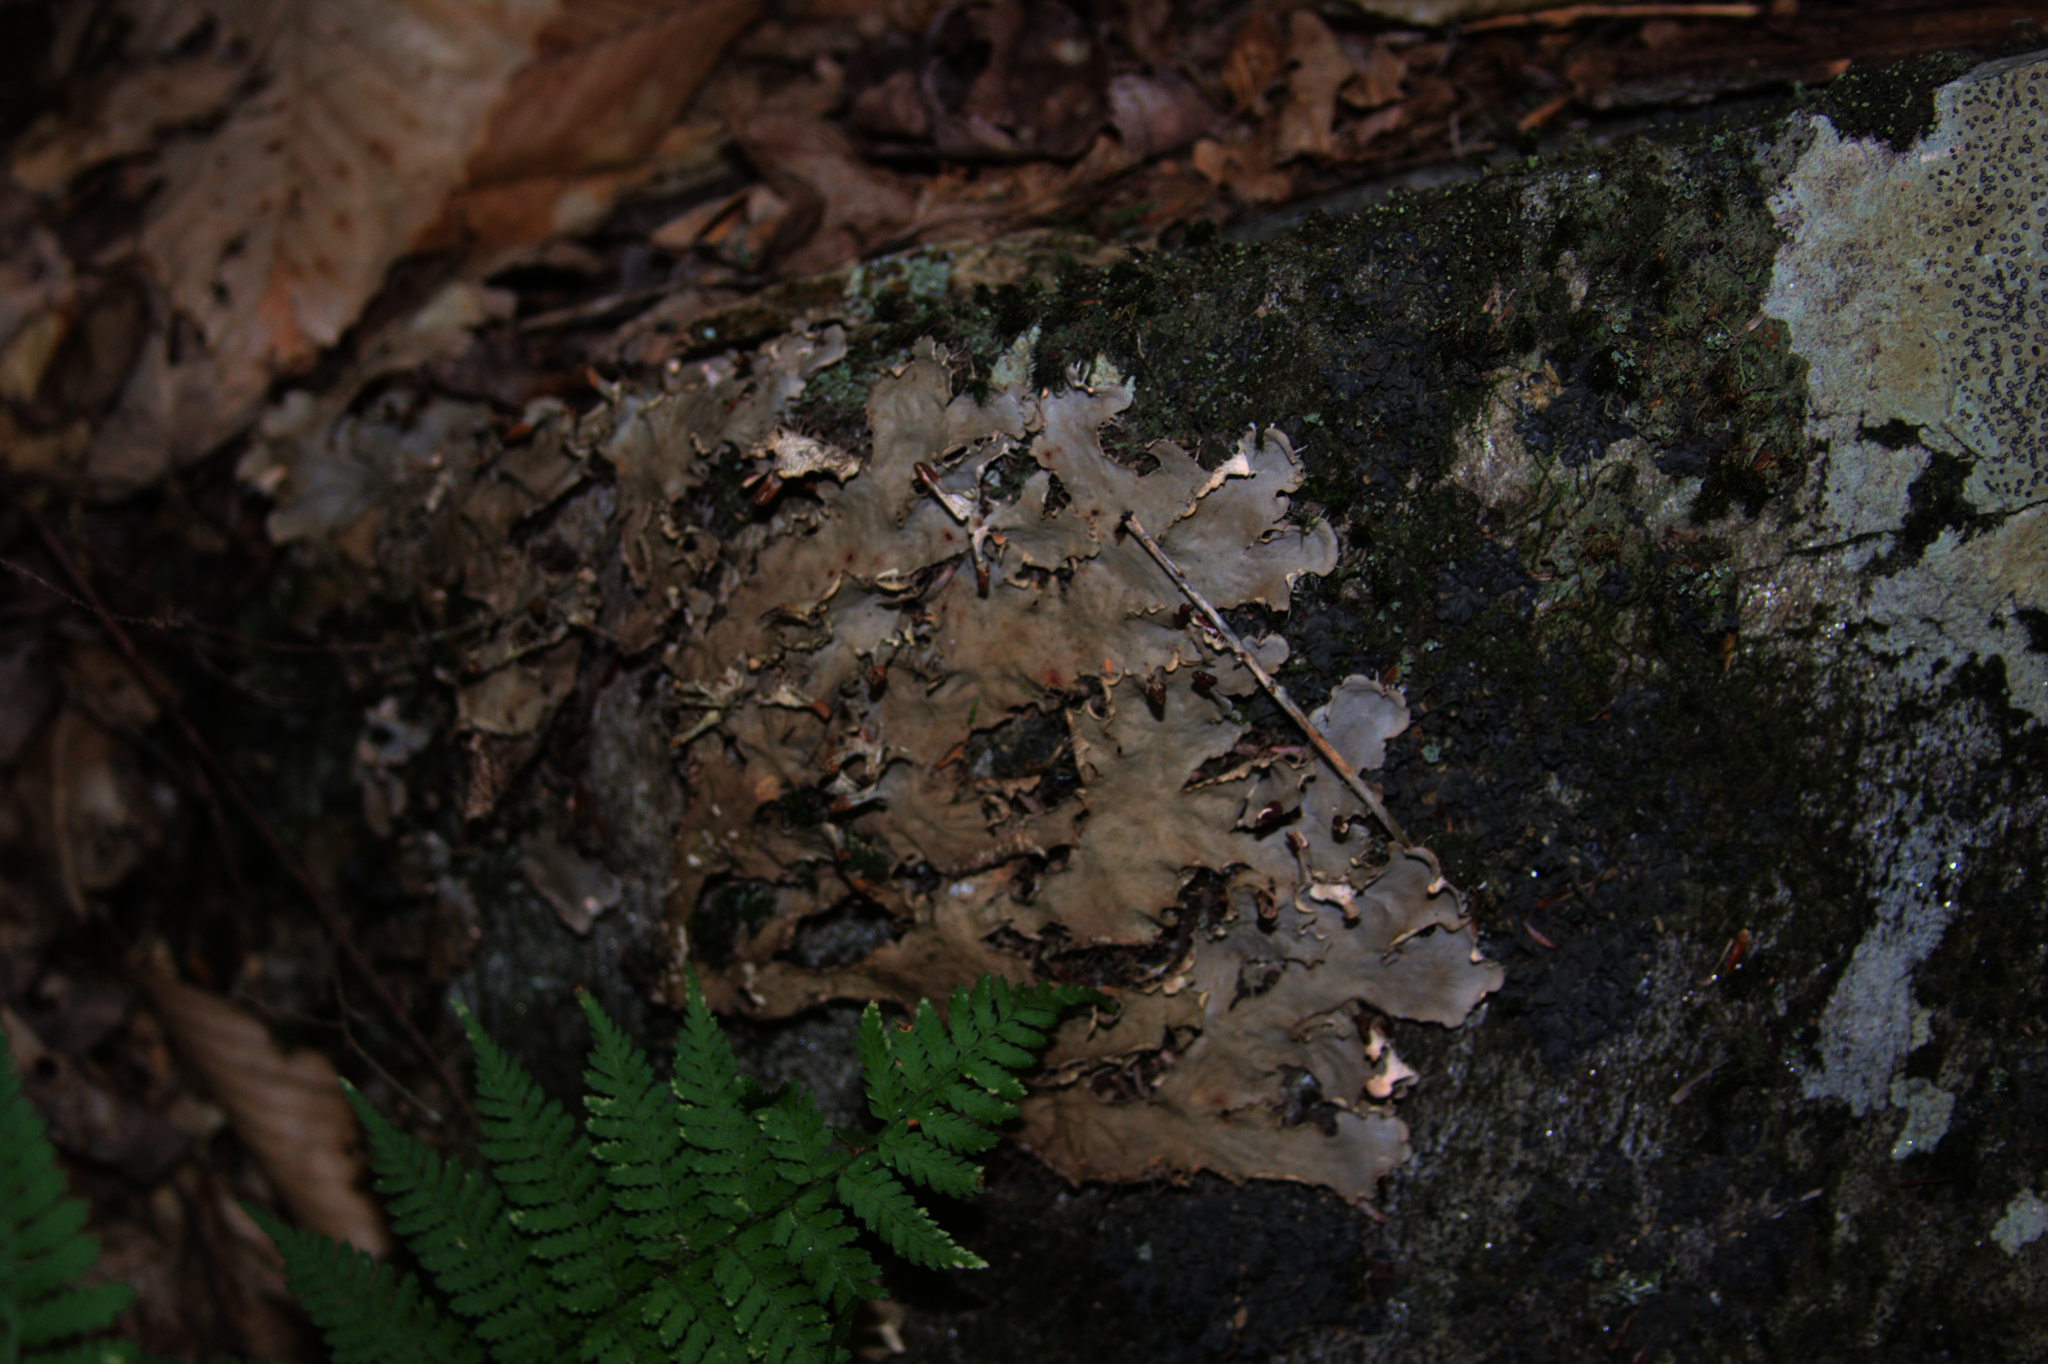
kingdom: Fungi
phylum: Ascomycota
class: Lecanoromycetes
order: Umbilicariales
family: Umbilicariaceae
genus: Umbilicaria
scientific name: Umbilicaria mammulata
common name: Smooth rock tripe
